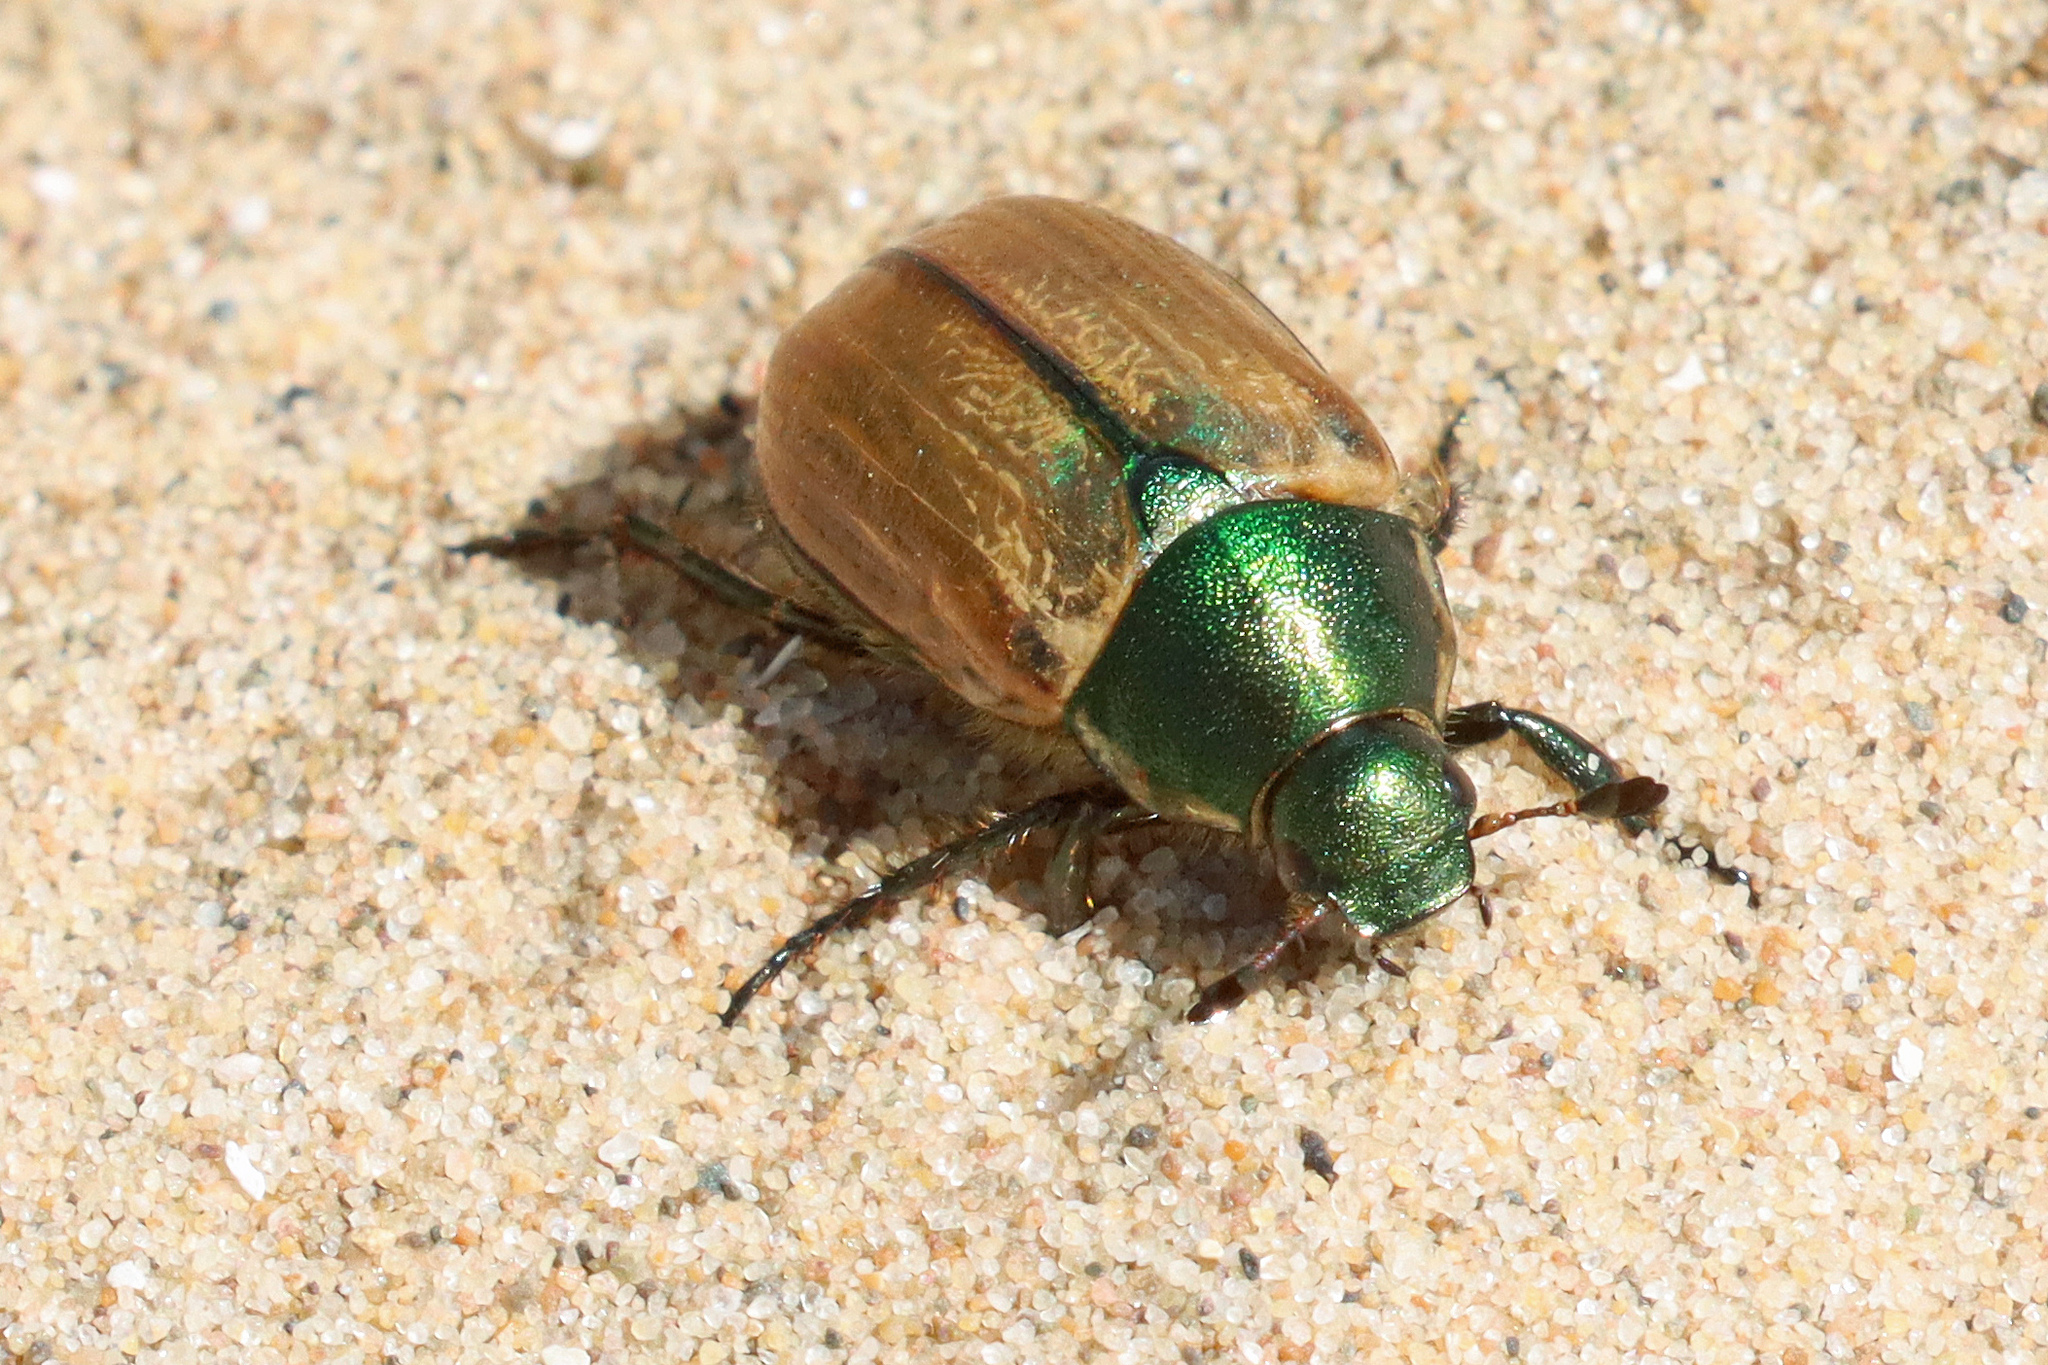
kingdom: Animalia
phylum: Arthropoda
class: Insecta
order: Coleoptera
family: Scarabaeidae
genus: Anomala
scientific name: Anomala dubia
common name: Dune chafer
